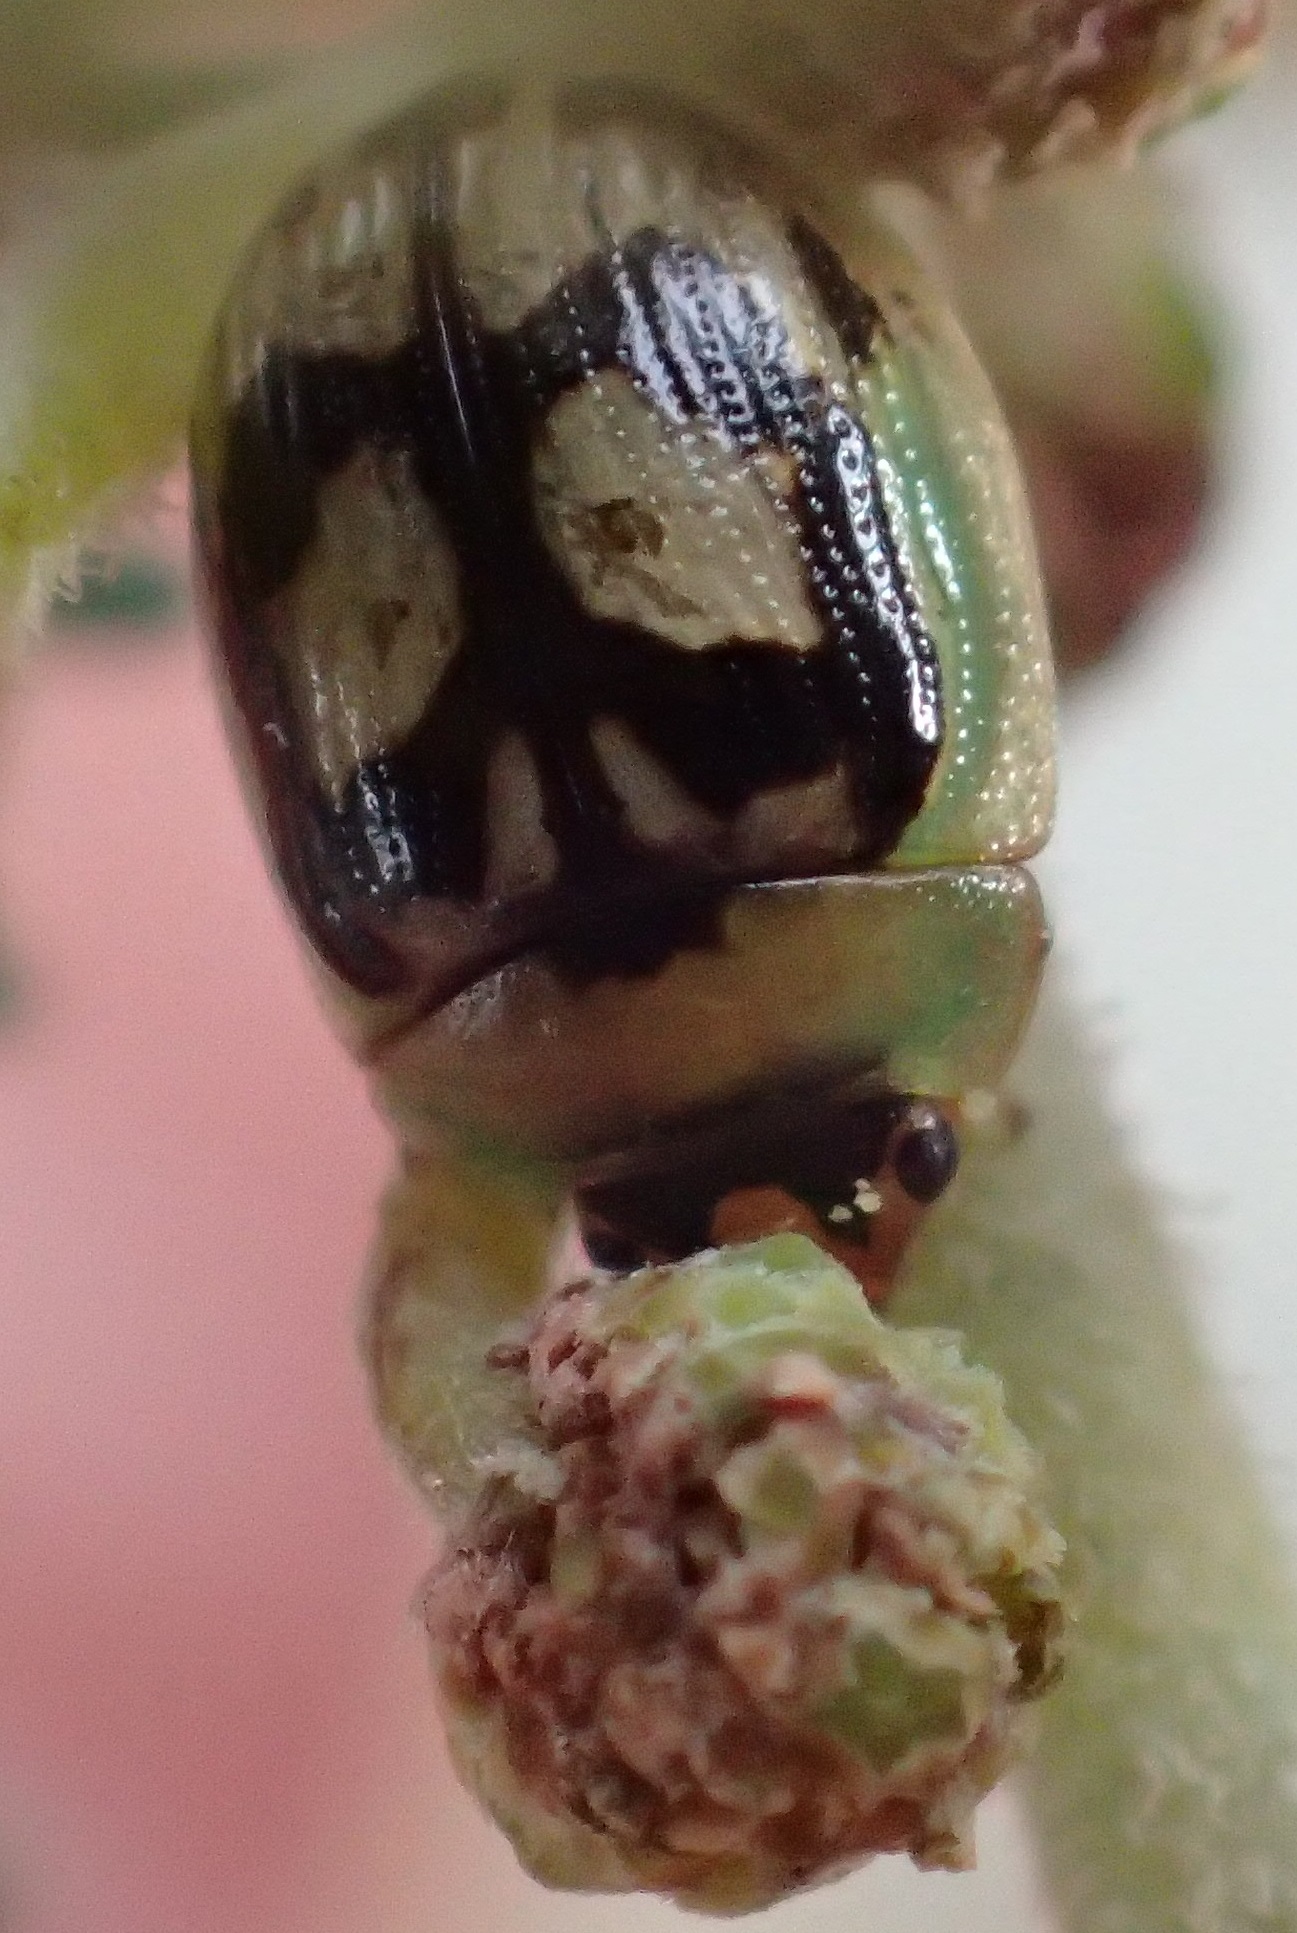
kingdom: Animalia
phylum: Arthropoda
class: Insecta
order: Coleoptera
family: Chrysomelidae
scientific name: Chrysomelidae
